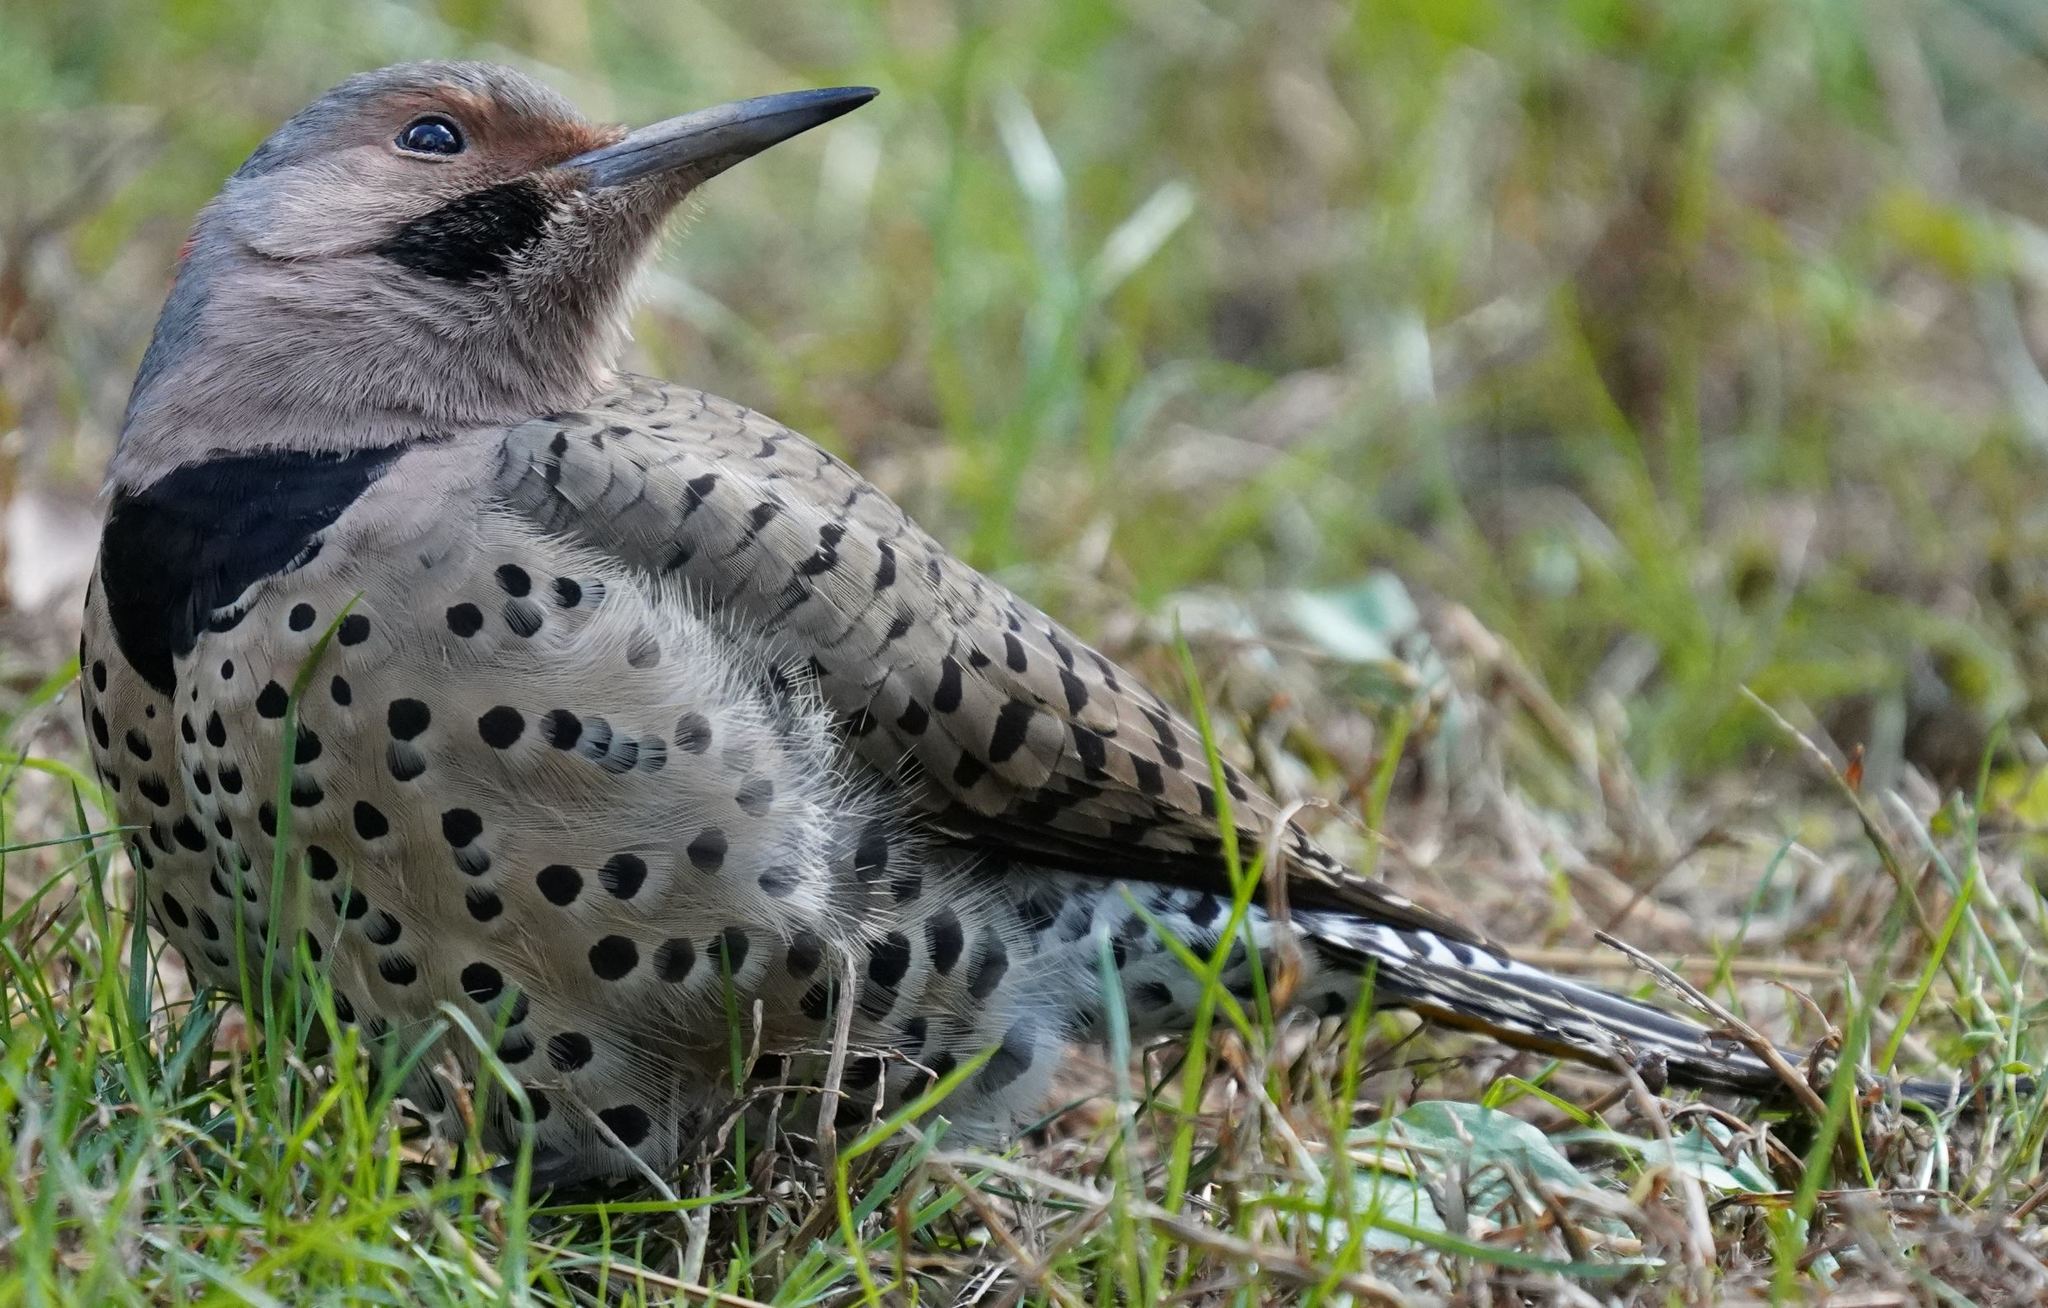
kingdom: Animalia
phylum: Chordata
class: Aves
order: Piciformes
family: Picidae
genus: Colaptes
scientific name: Colaptes auratus
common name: Northern flicker
